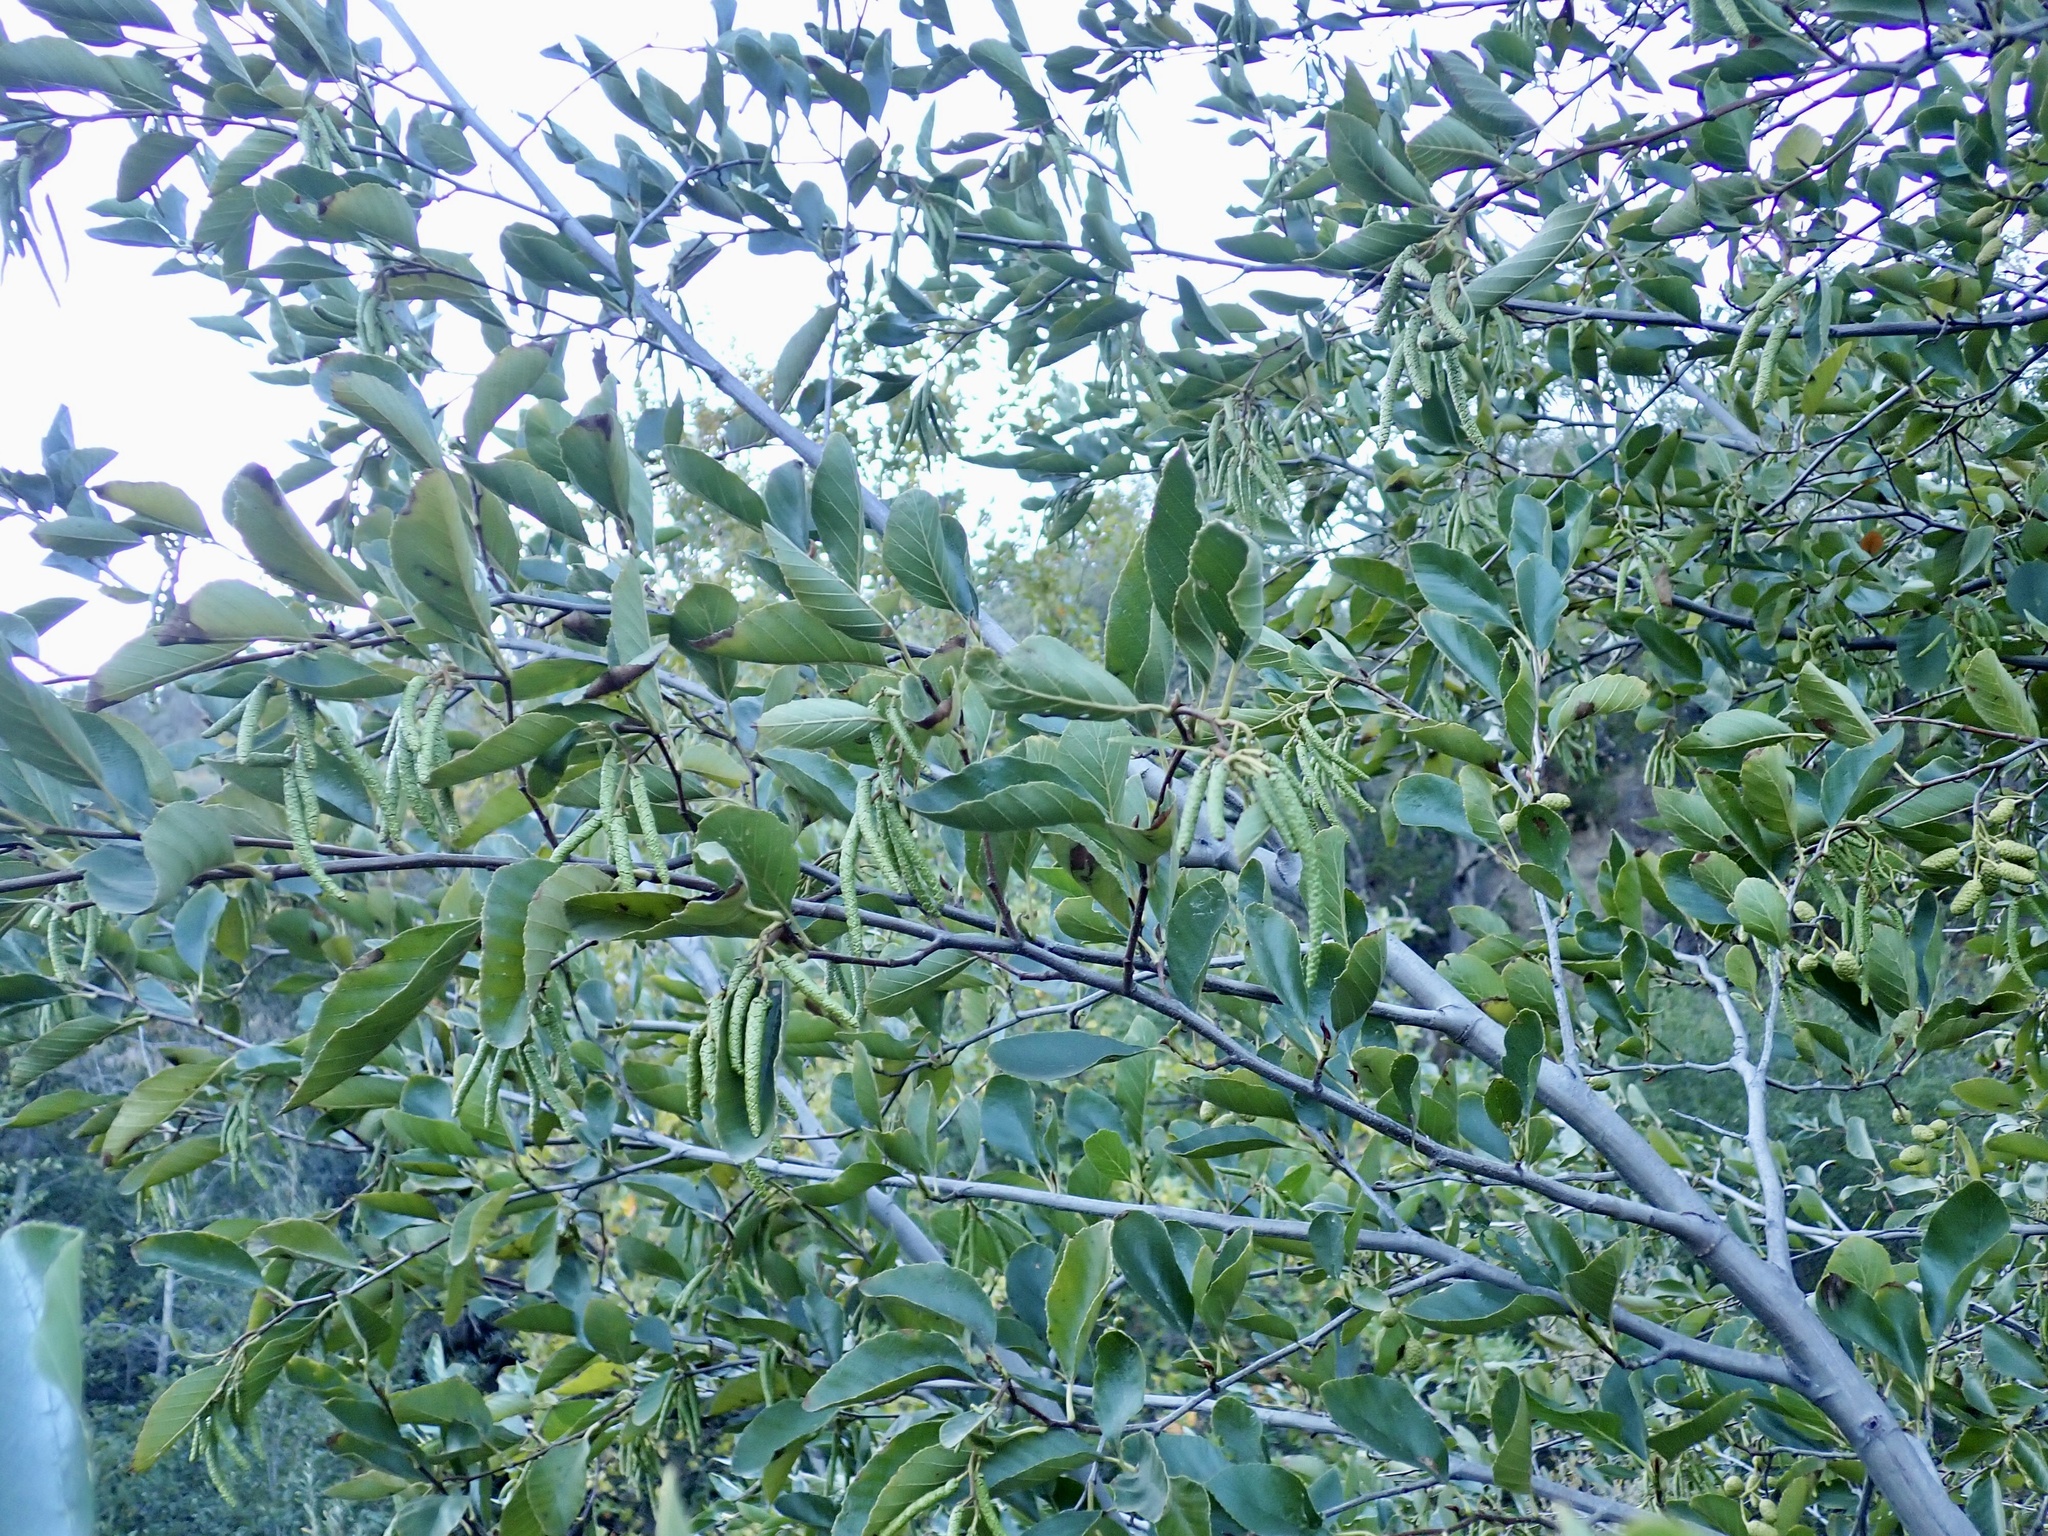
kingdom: Plantae
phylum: Tracheophyta
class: Magnoliopsida
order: Fagales
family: Betulaceae
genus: Alnus
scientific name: Alnus rhombifolia
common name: California alder
